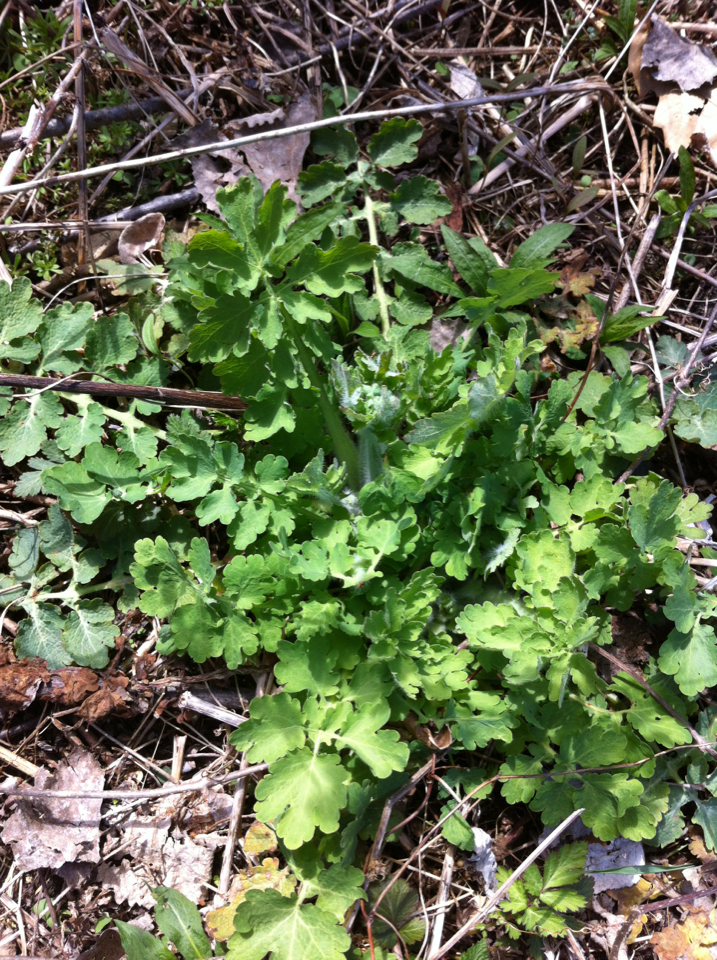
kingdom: Plantae
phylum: Tracheophyta
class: Magnoliopsida
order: Ranunculales
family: Papaveraceae
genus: Chelidonium
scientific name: Chelidonium majus
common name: Greater celandine
